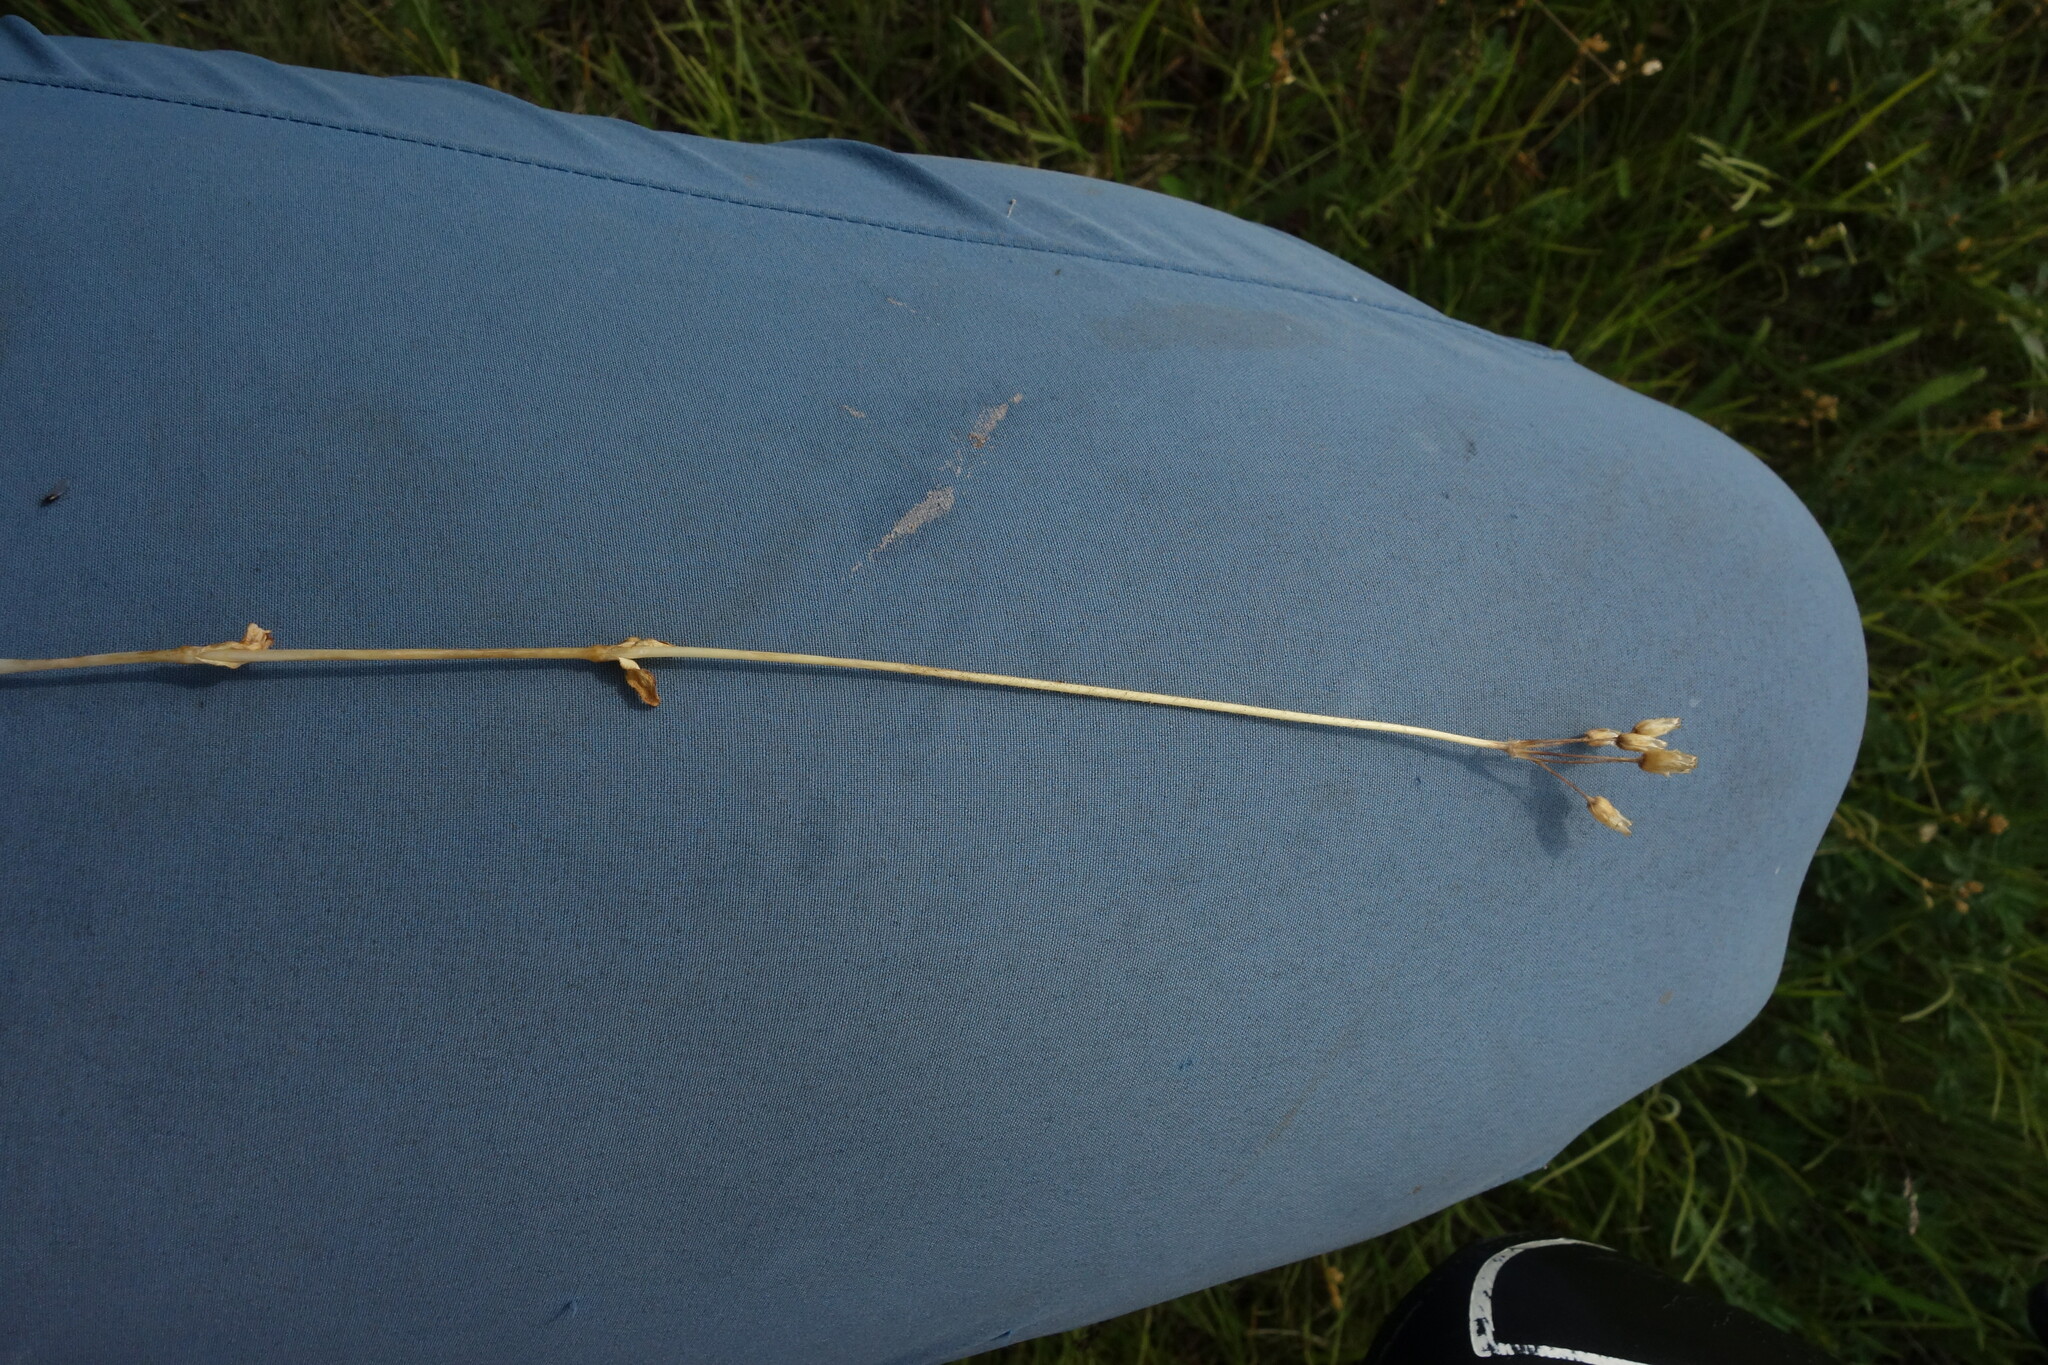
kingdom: Plantae
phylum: Tracheophyta
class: Magnoliopsida
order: Caryophyllales
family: Caryophyllaceae
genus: Holosteum
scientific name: Holosteum umbellatum
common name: Jagged chickweed
